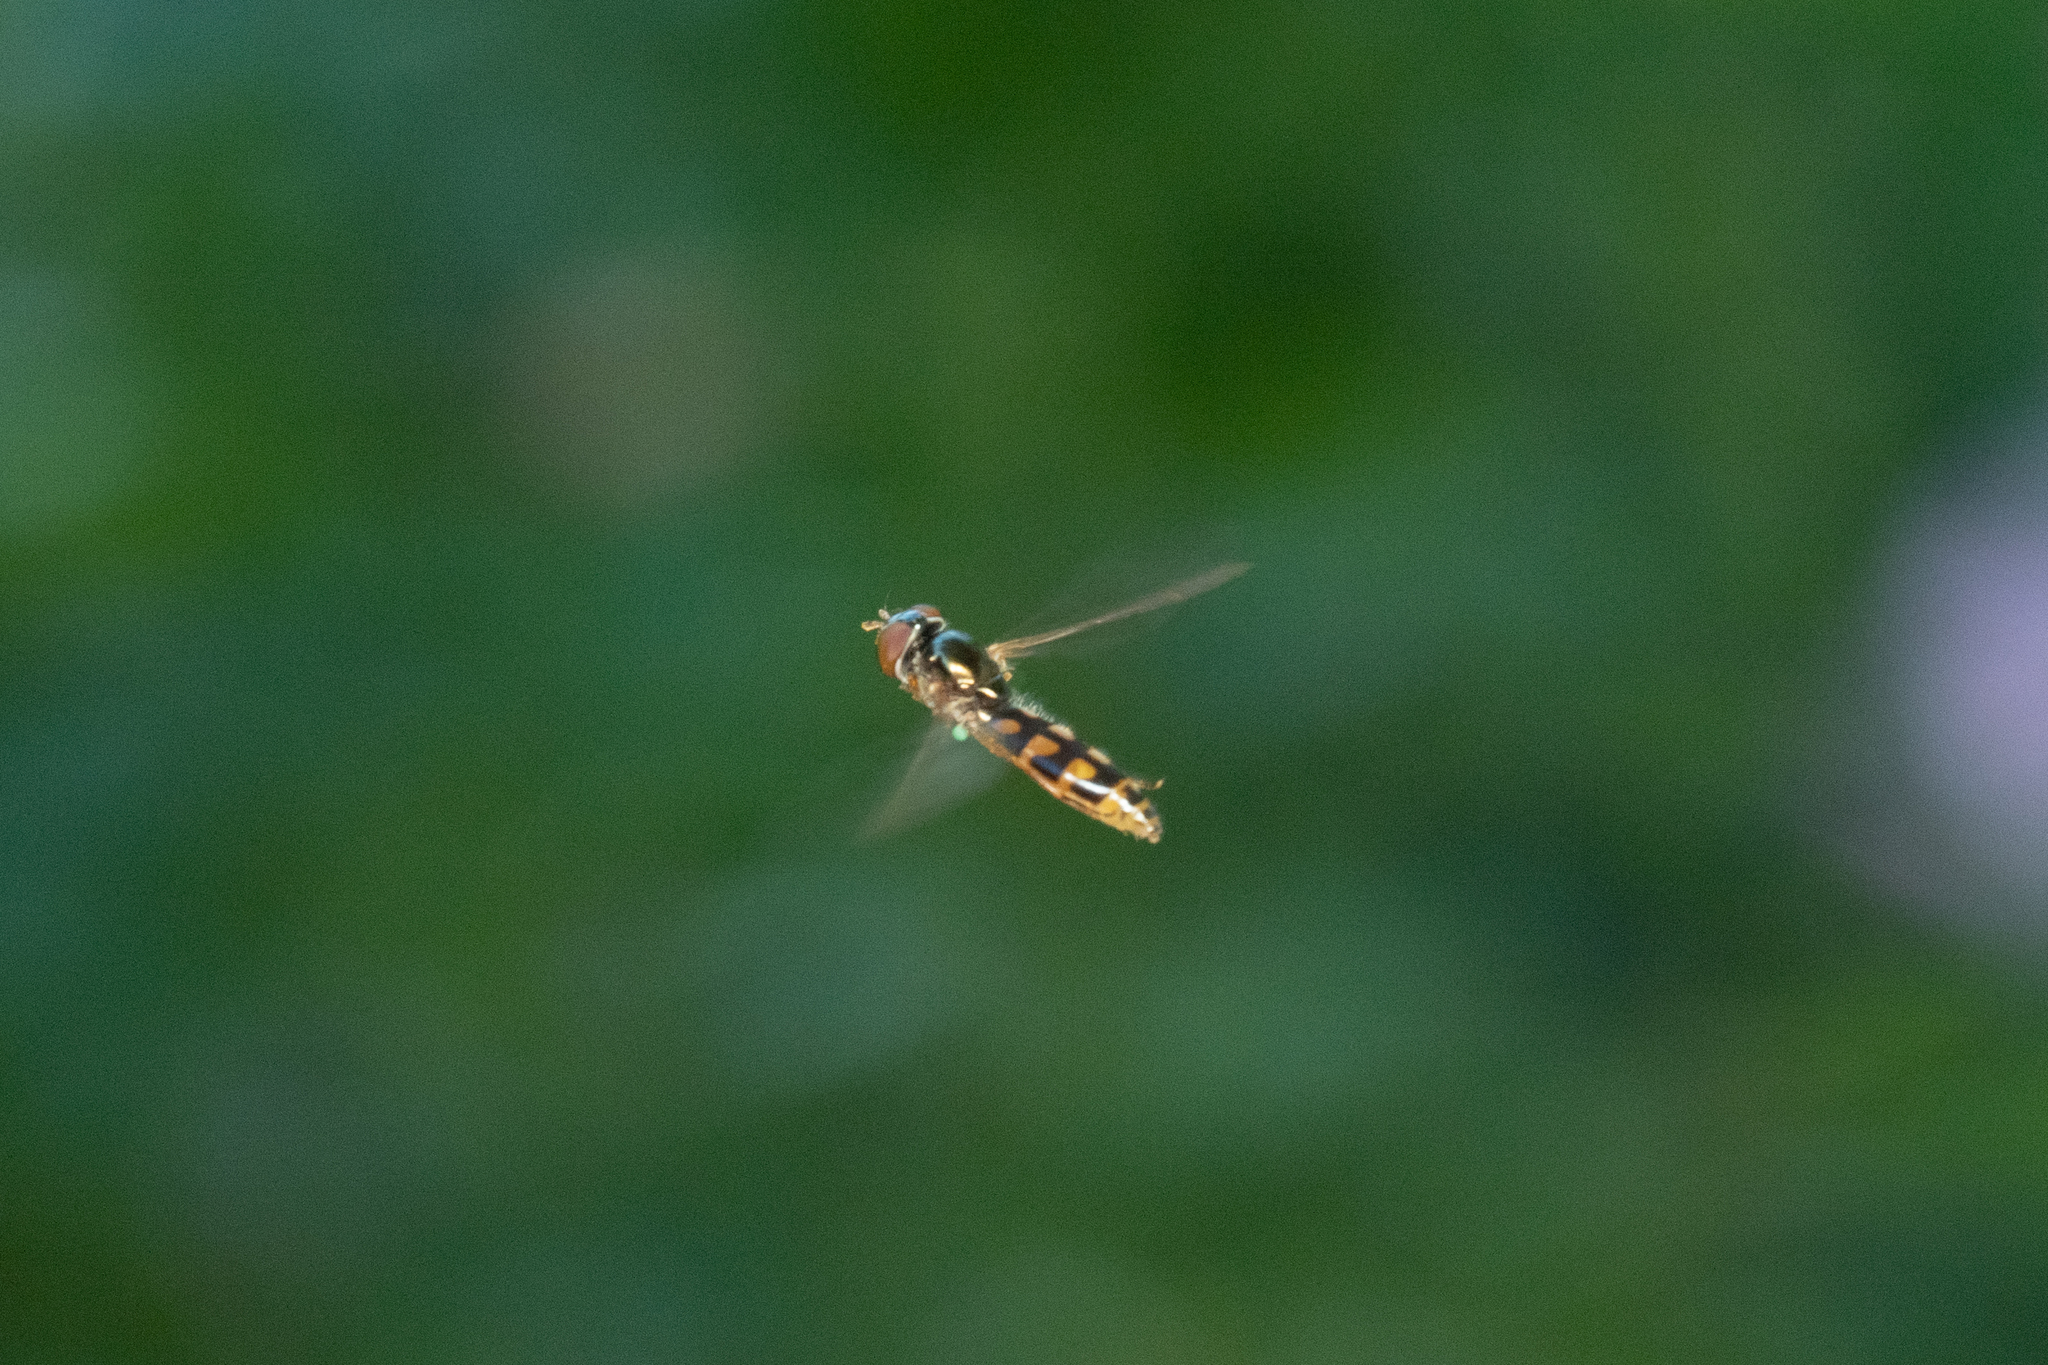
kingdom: Animalia
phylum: Arthropoda
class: Insecta
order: Diptera
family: Syrphidae
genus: Melanostoma
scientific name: Melanostoma mellina
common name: Hover fly
